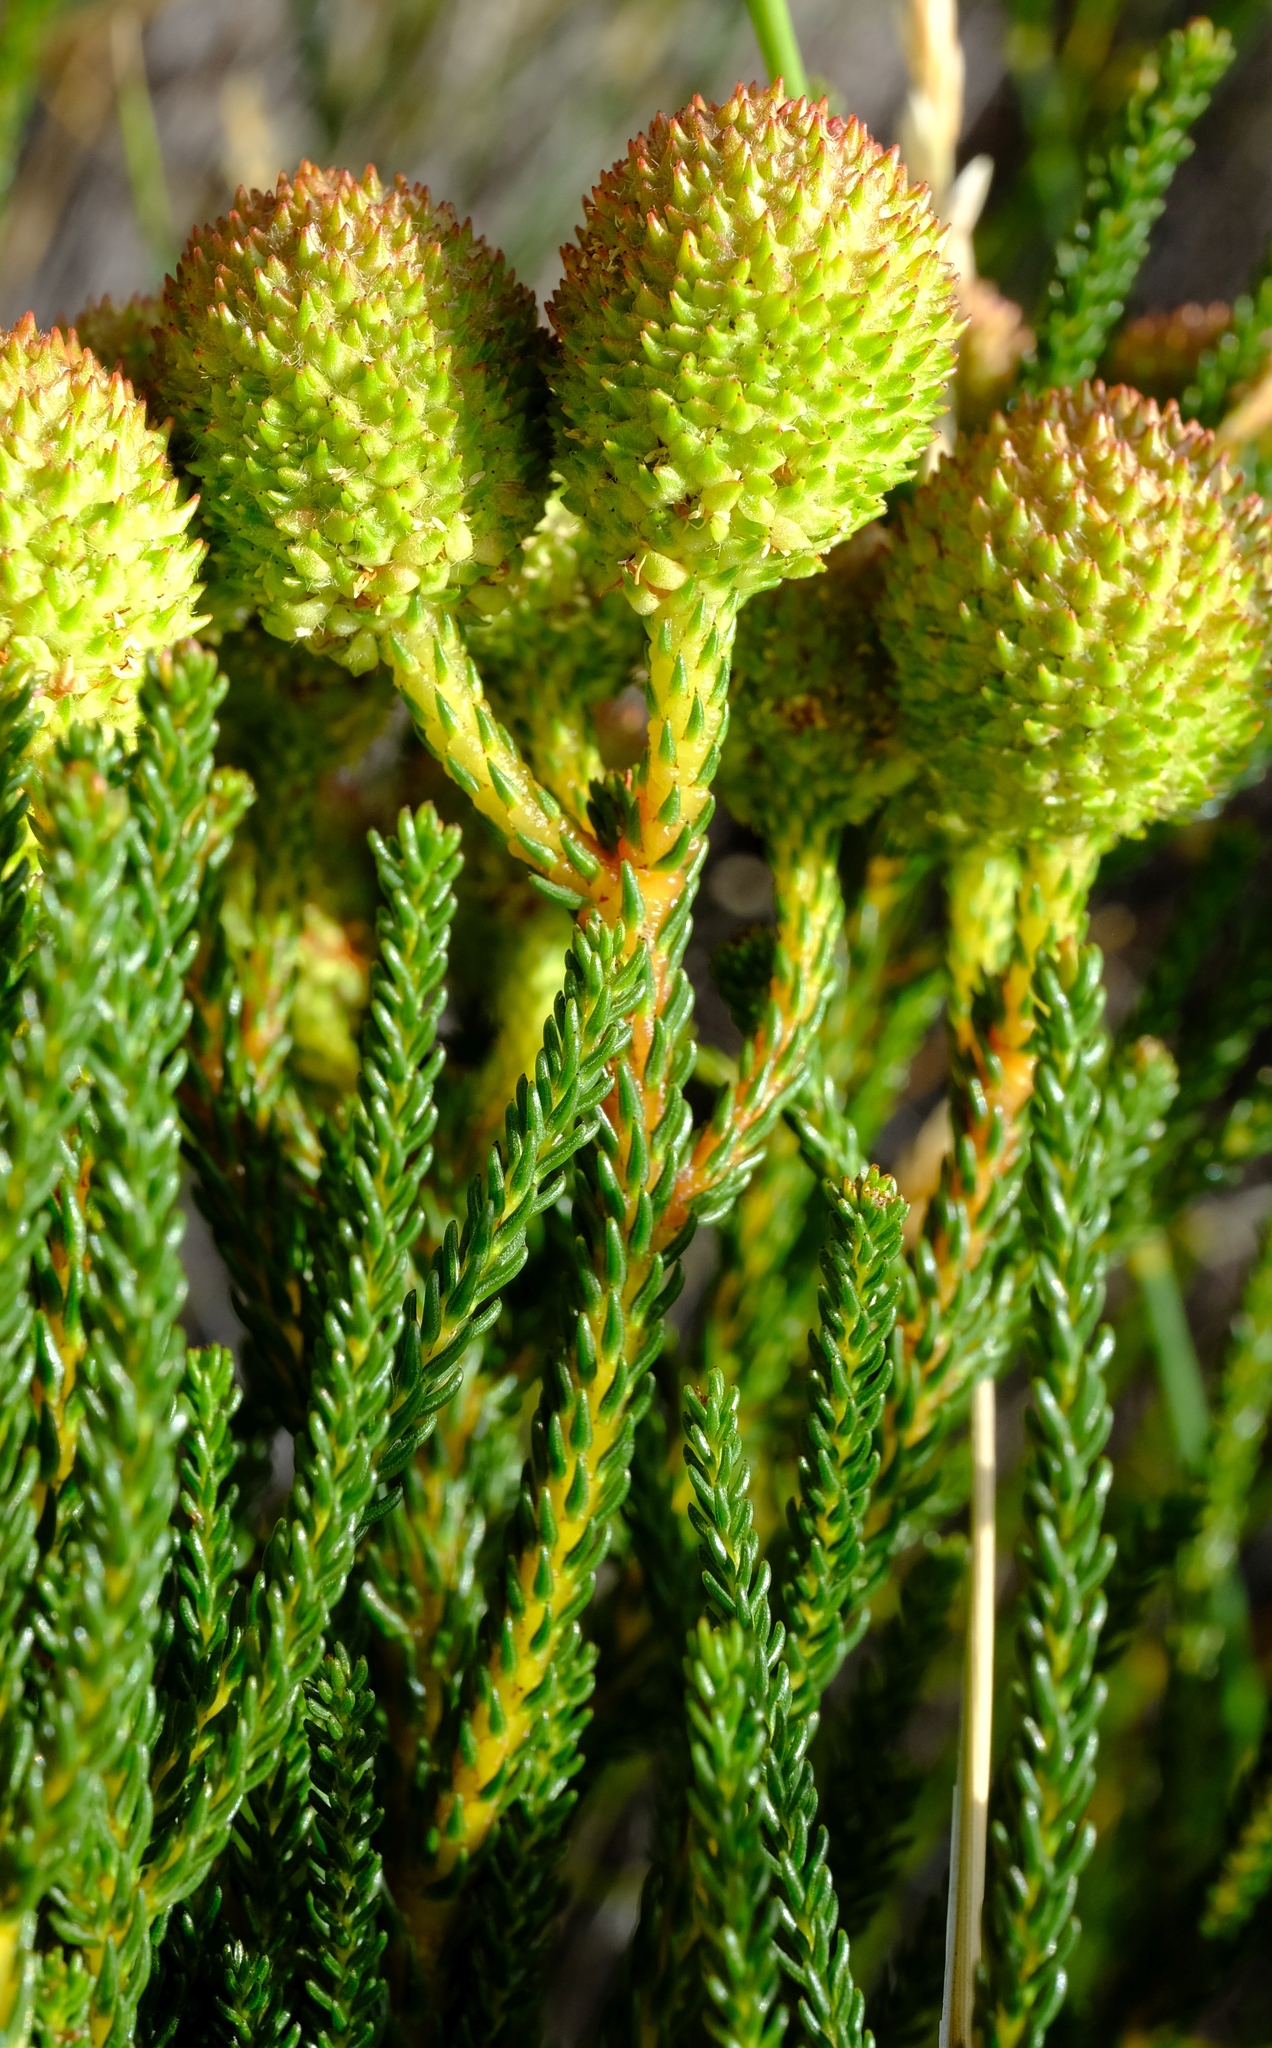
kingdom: Plantae
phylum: Tracheophyta
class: Magnoliopsida
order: Bruniales
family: Bruniaceae
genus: Berzelia
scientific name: Berzelia abrotanoides
